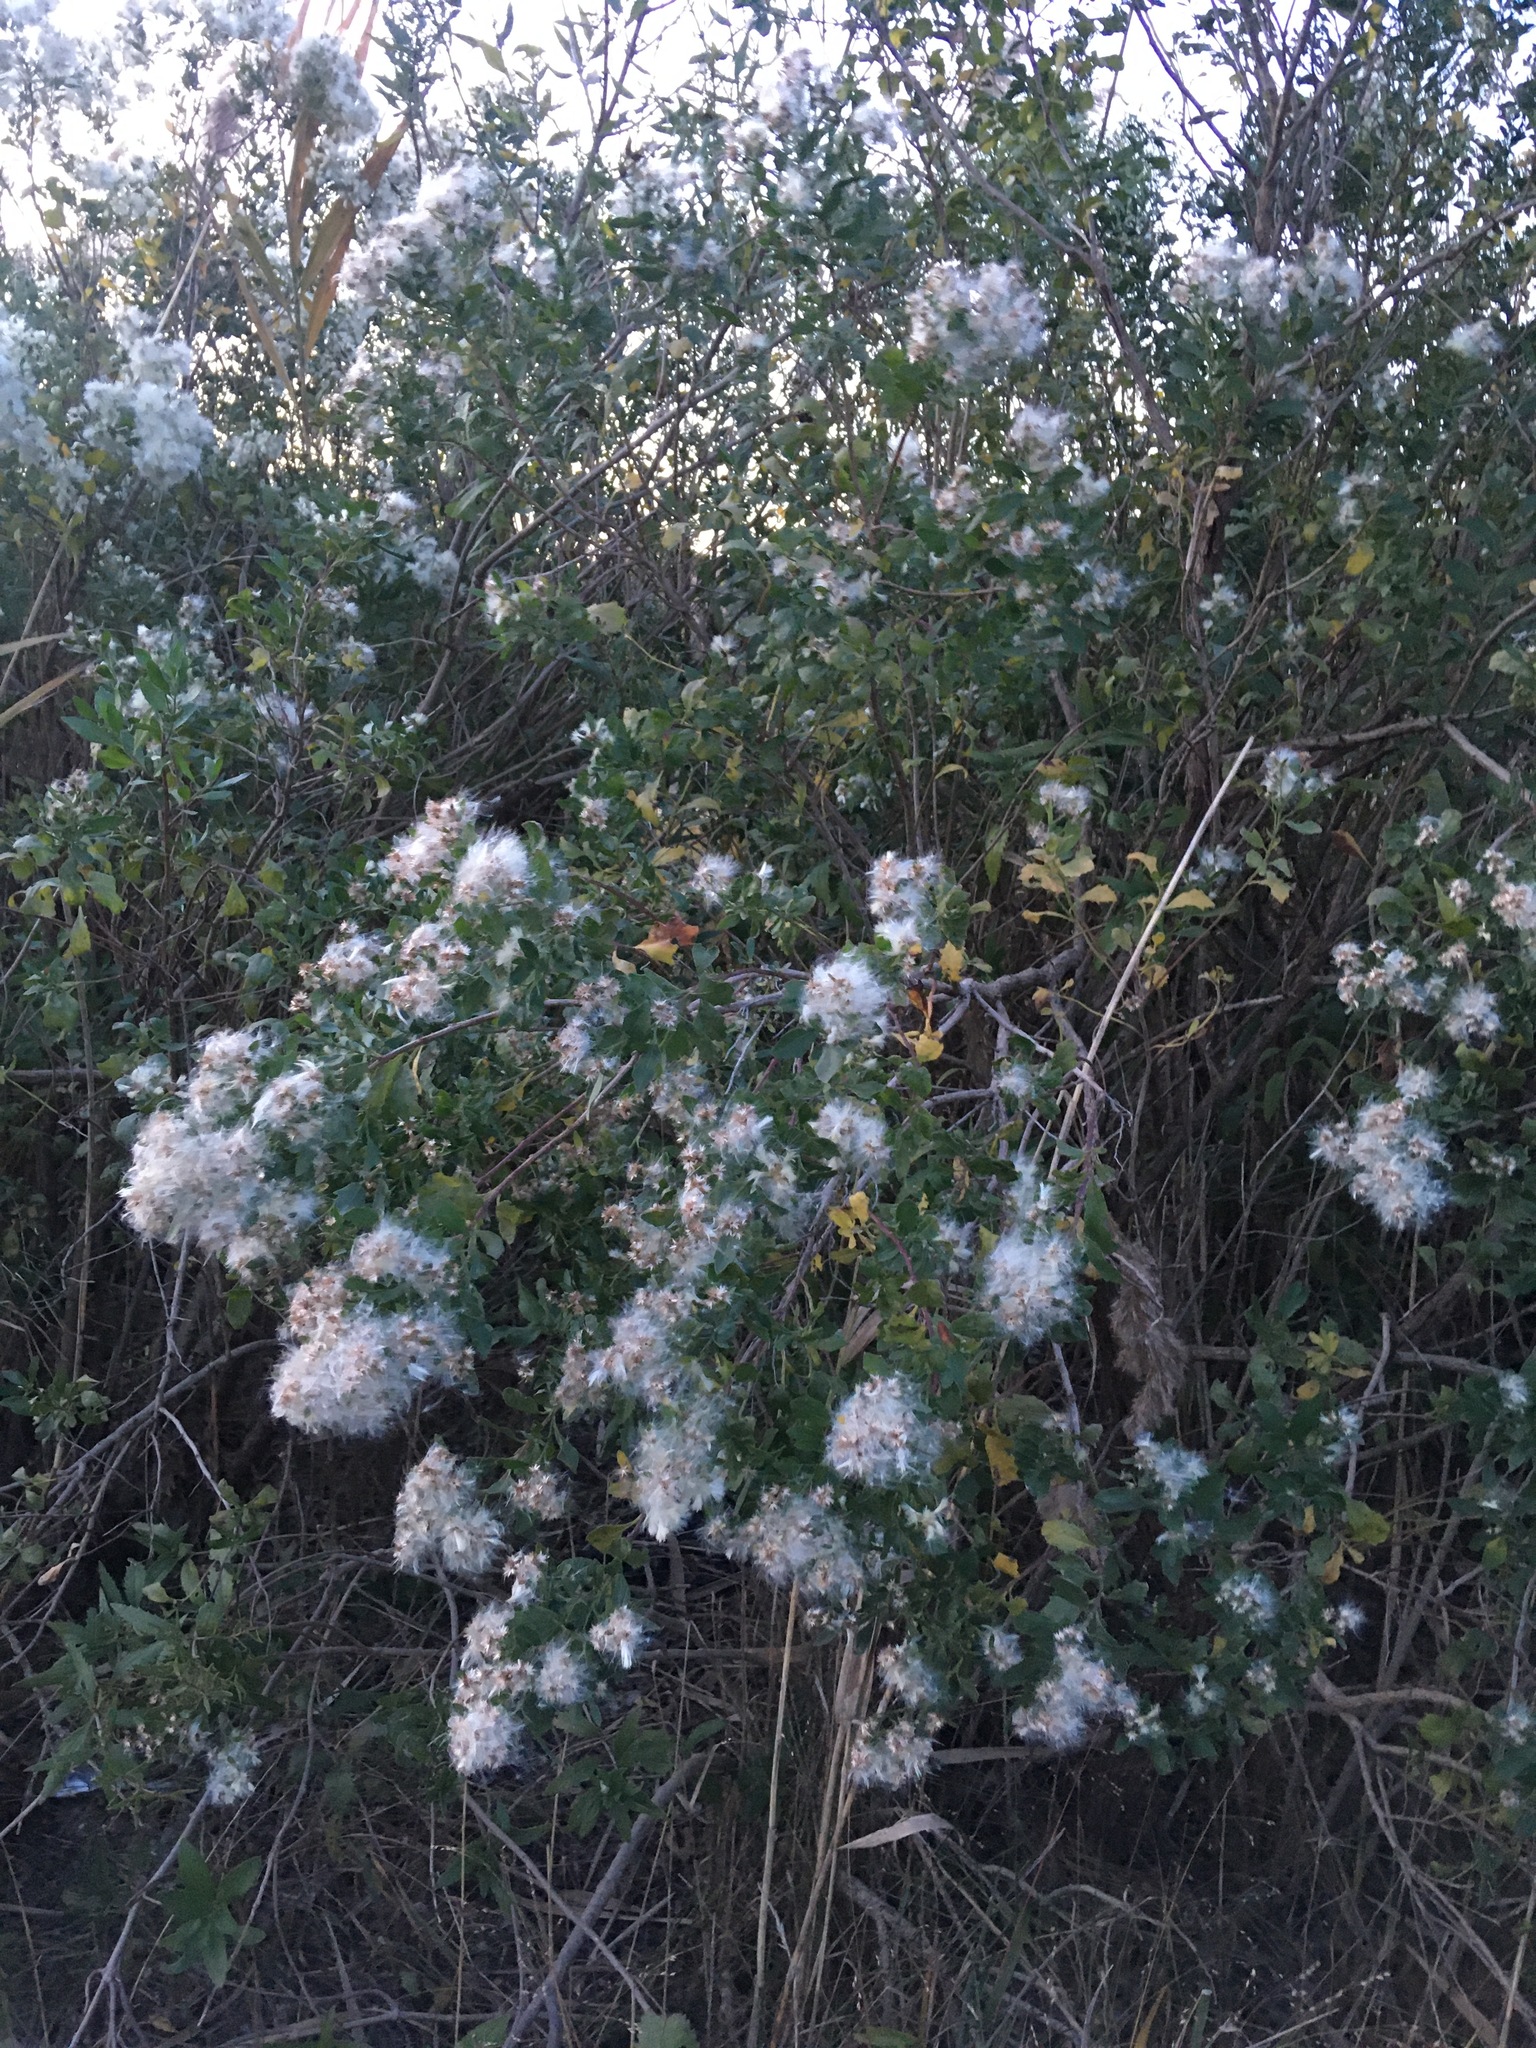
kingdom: Plantae
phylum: Tracheophyta
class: Magnoliopsida
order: Asterales
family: Asteraceae
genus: Baccharis
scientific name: Baccharis halimifolia
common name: Eastern baccharis
